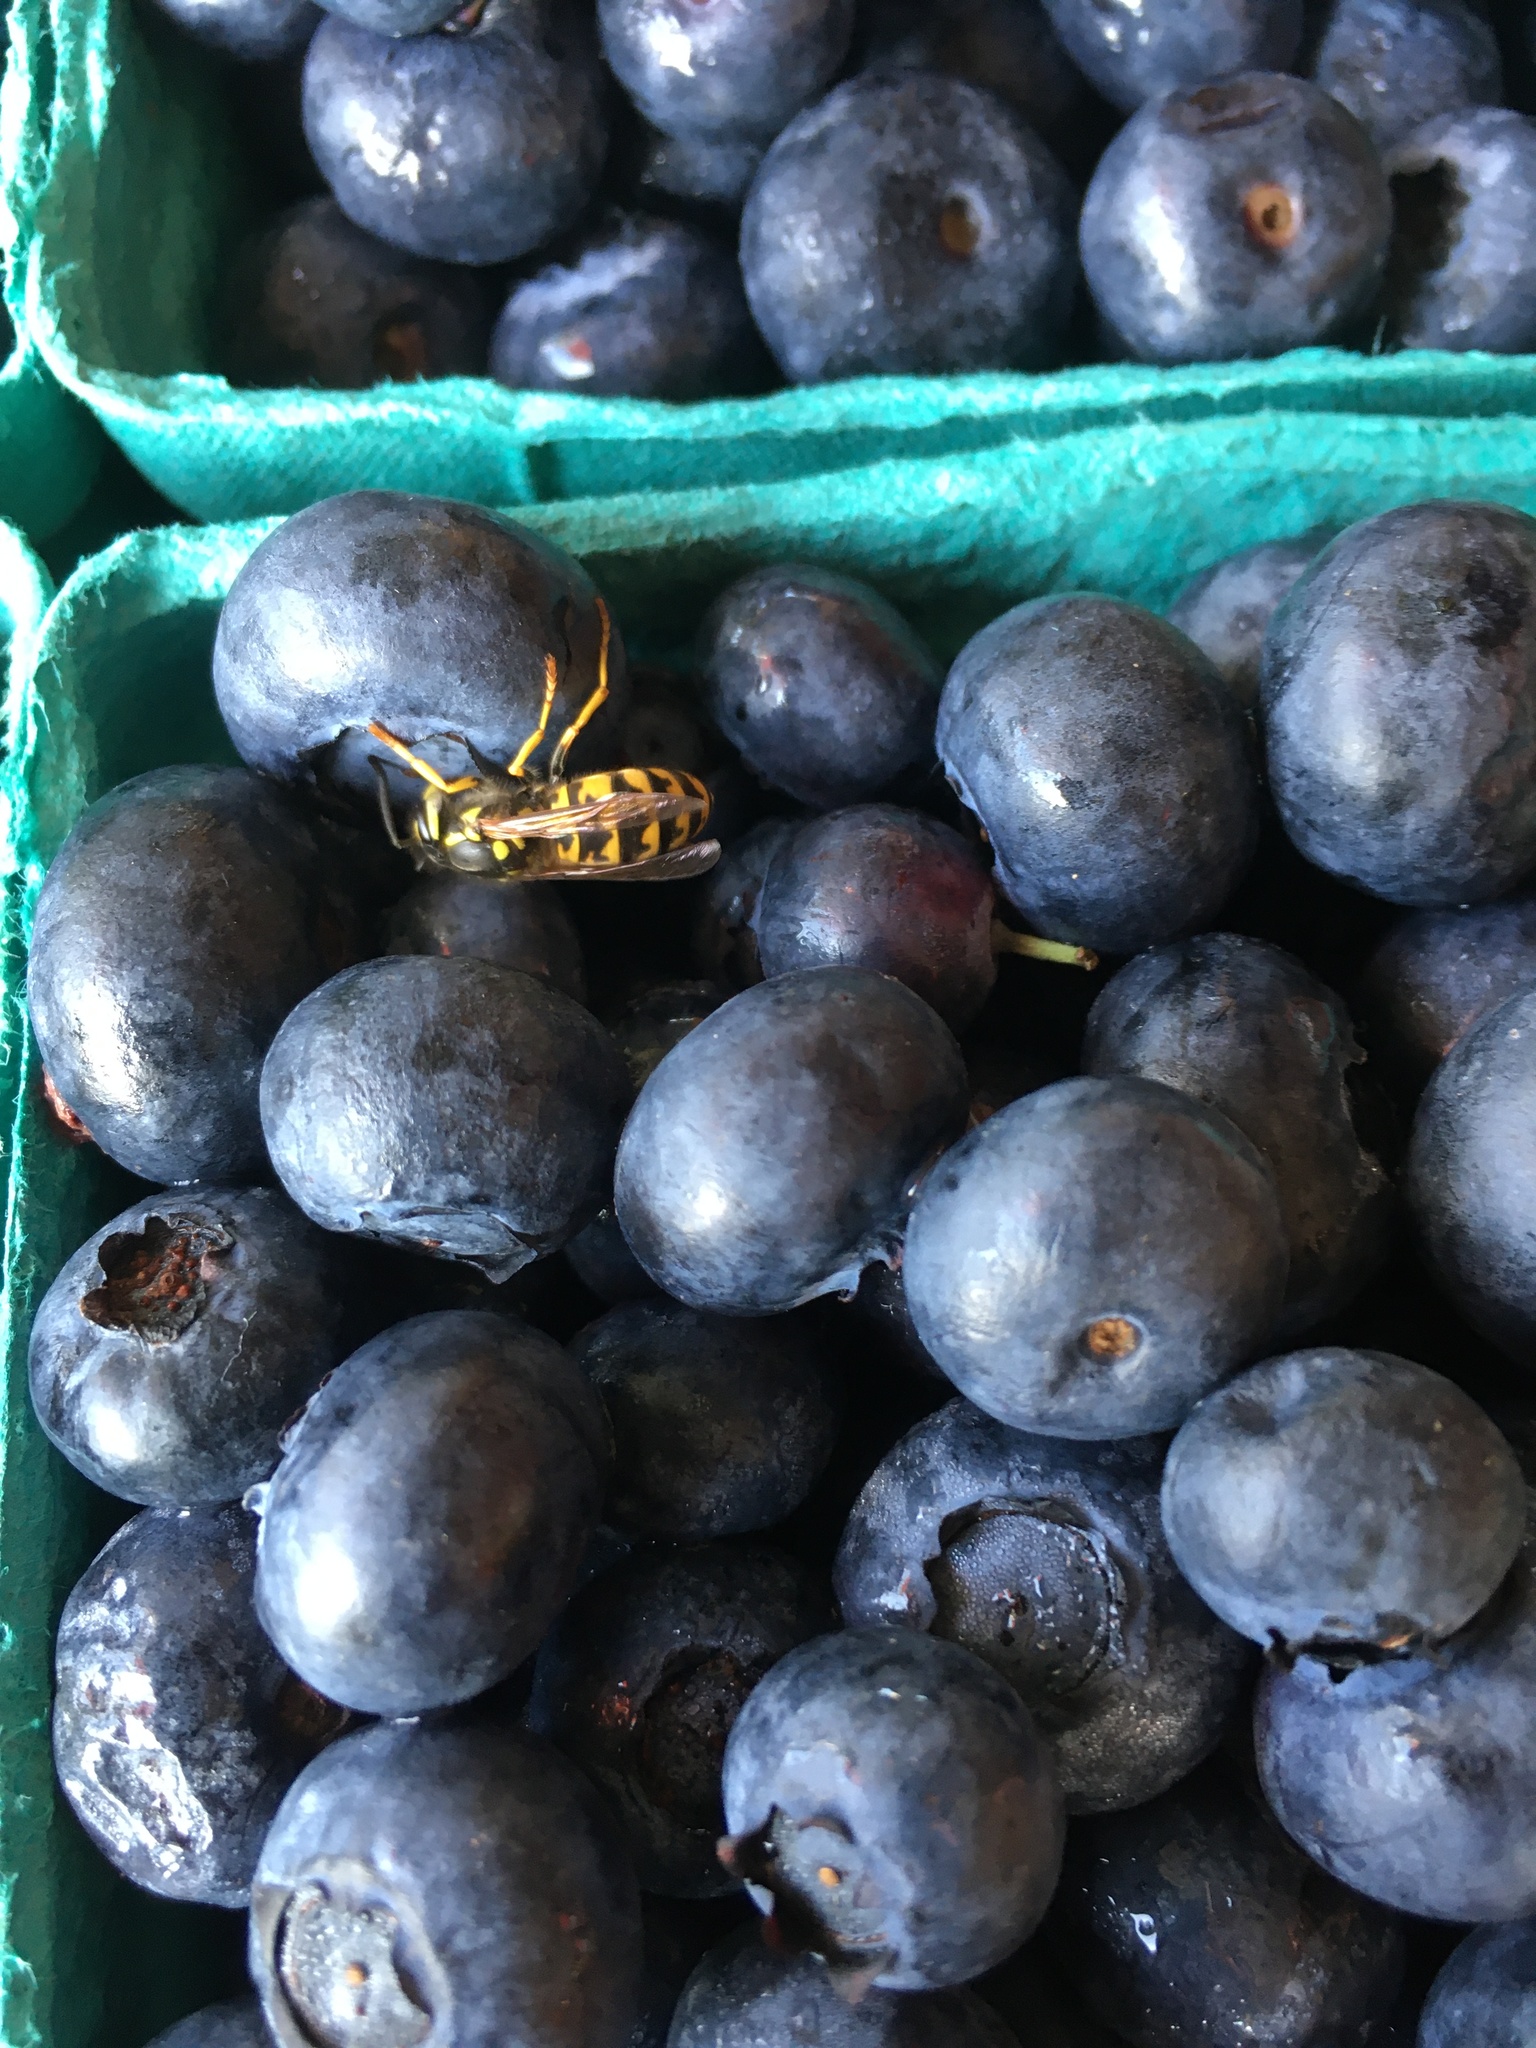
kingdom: Animalia
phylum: Arthropoda
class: Insecta
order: Hymenoptera
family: Vespidae
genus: Vespula
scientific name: Vespula germanica
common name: German wasp
